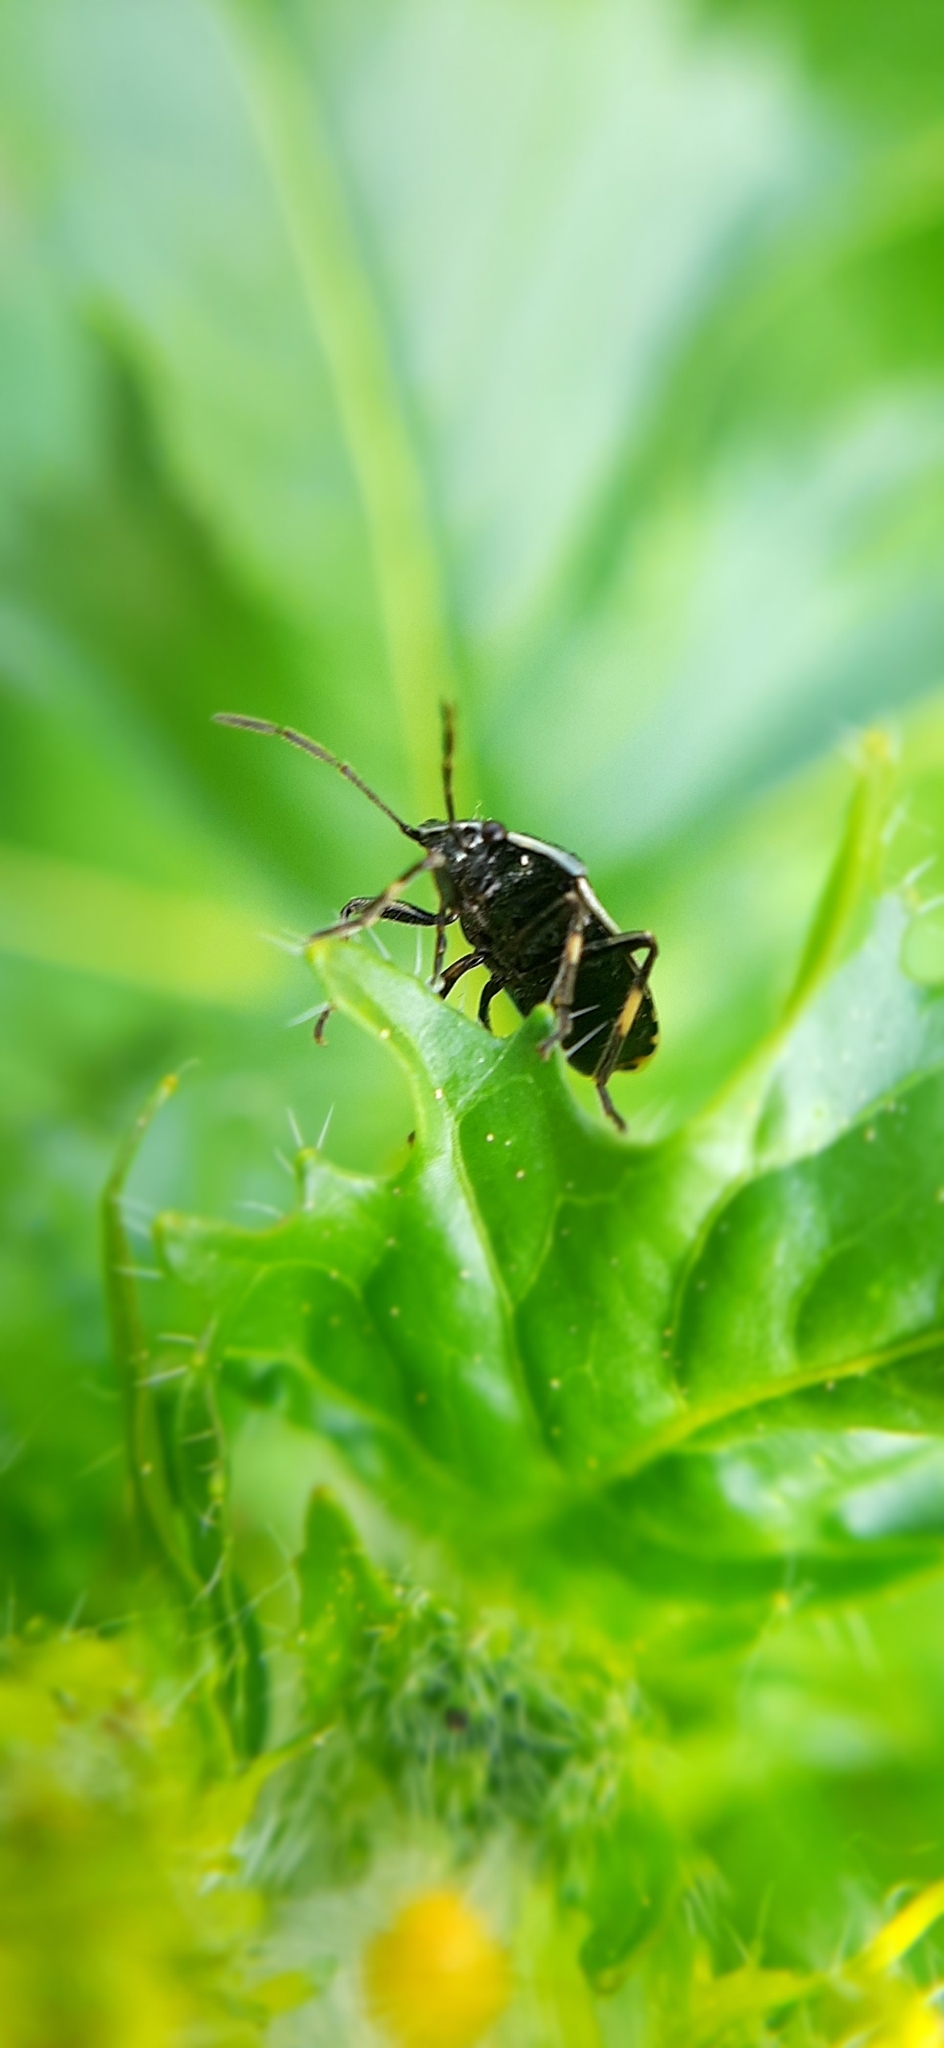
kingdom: Animalia
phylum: Arthropoda
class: Insecta
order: Hemiptera
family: Pentatomidae
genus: Eurydema
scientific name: Eurydema oleracea
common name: Cabbage bug
